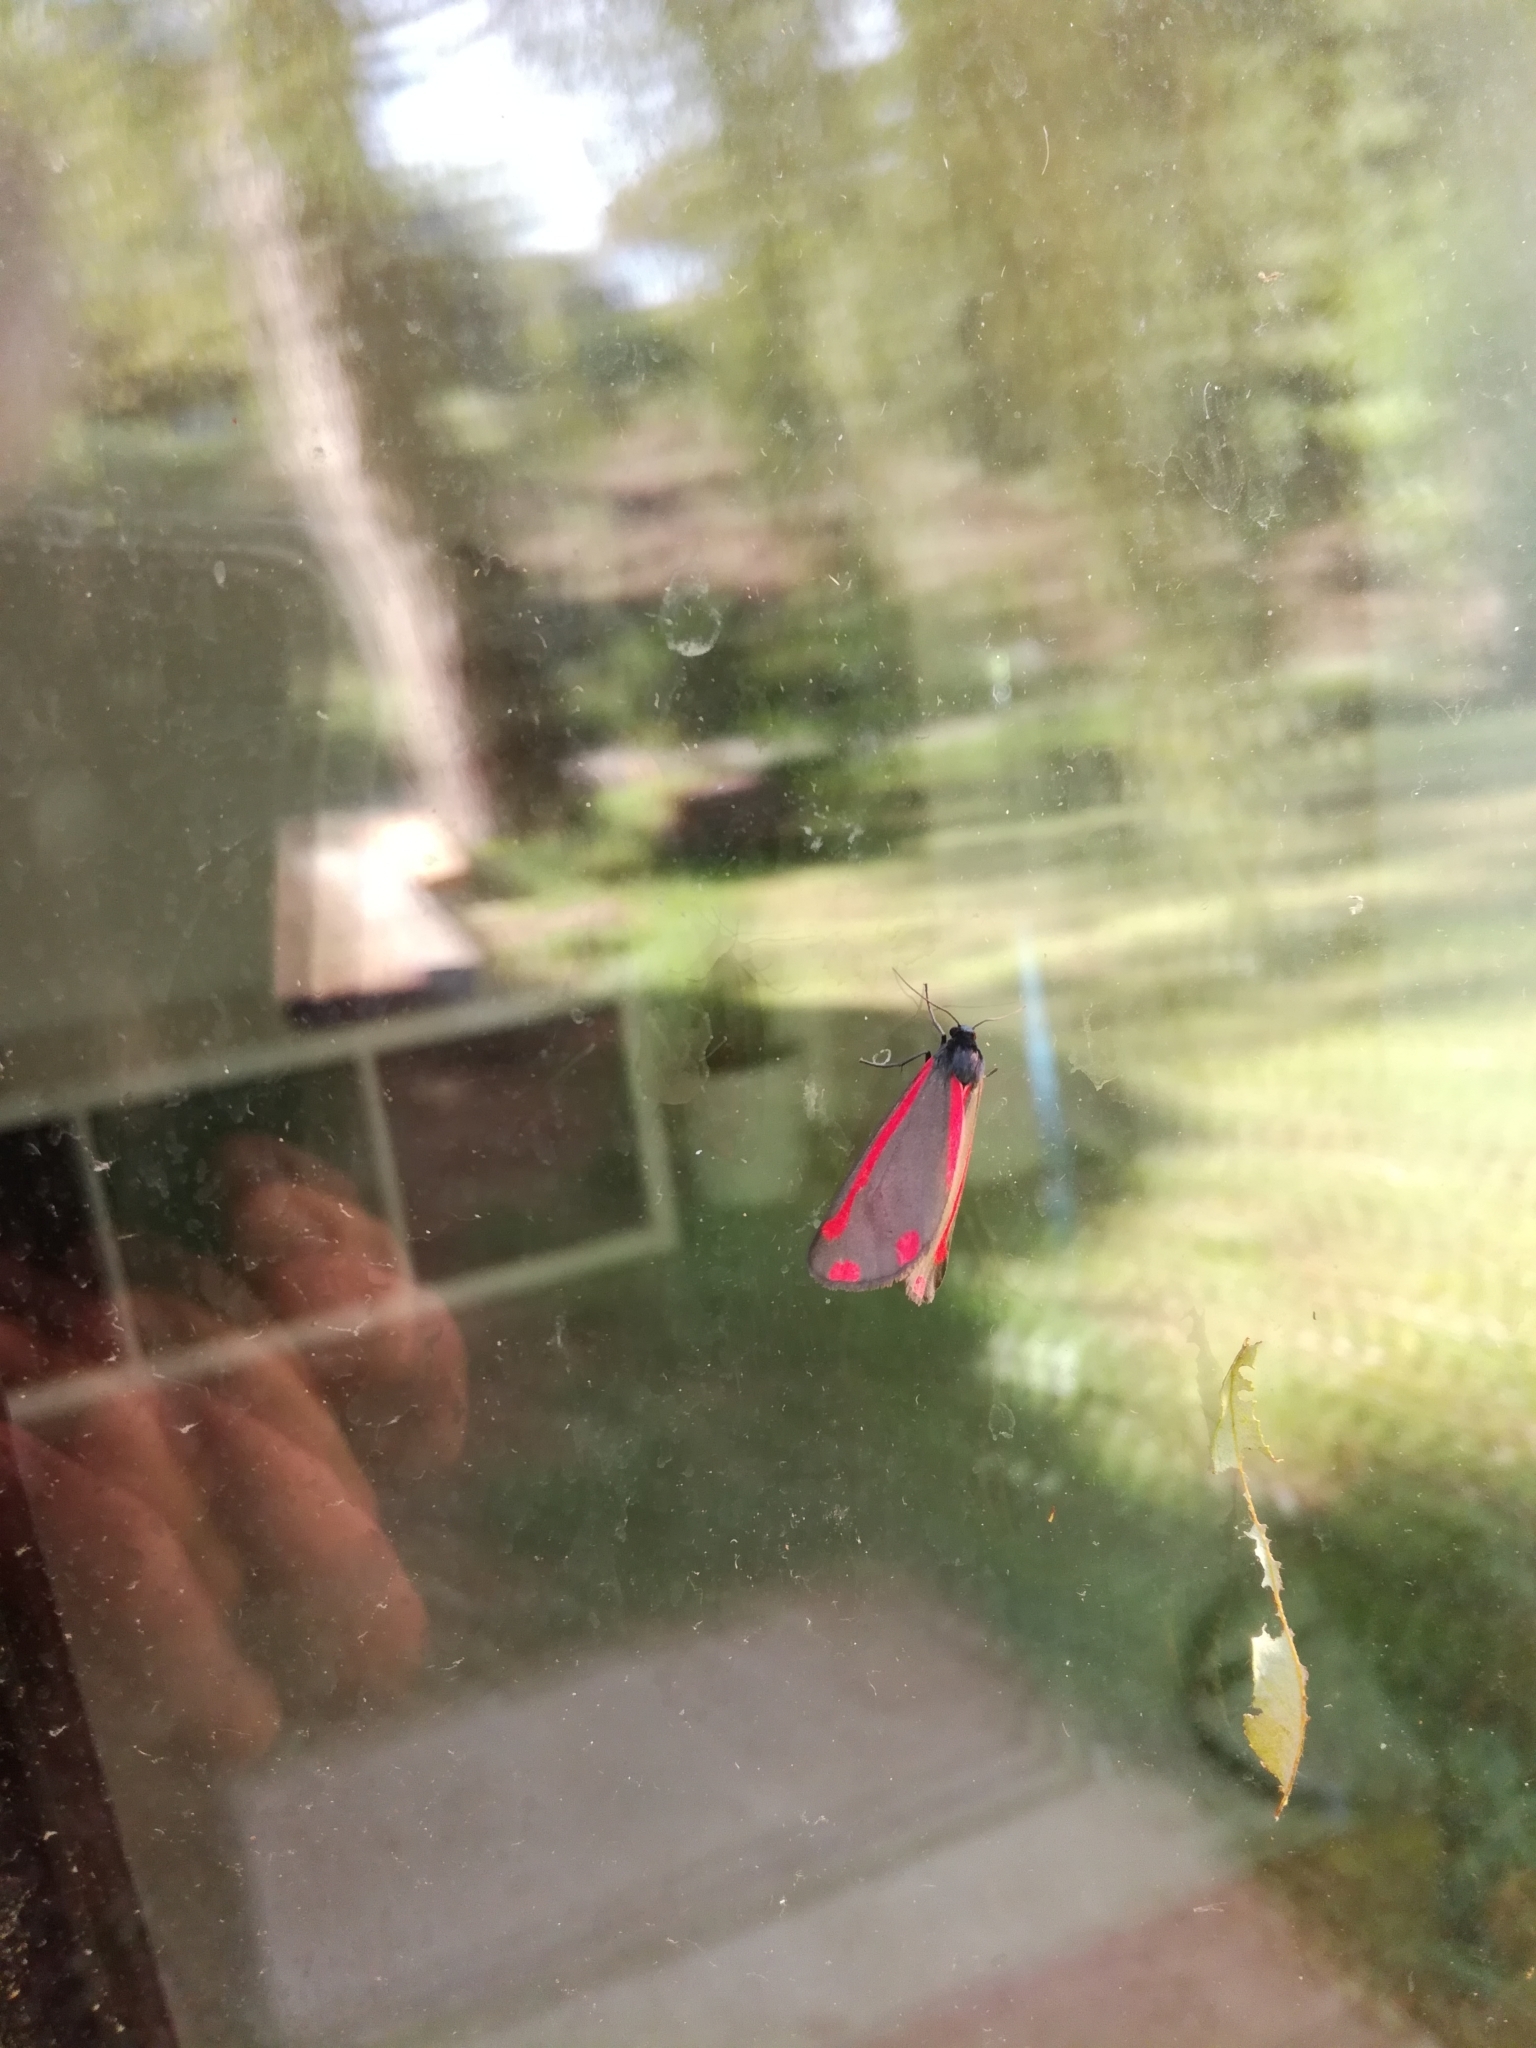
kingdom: Animalia
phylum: Arthropoda
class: Insecta
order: Lepidoptera
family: Erebidae
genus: Tyria
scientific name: Tyria jacobaeae
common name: Cinnabar
